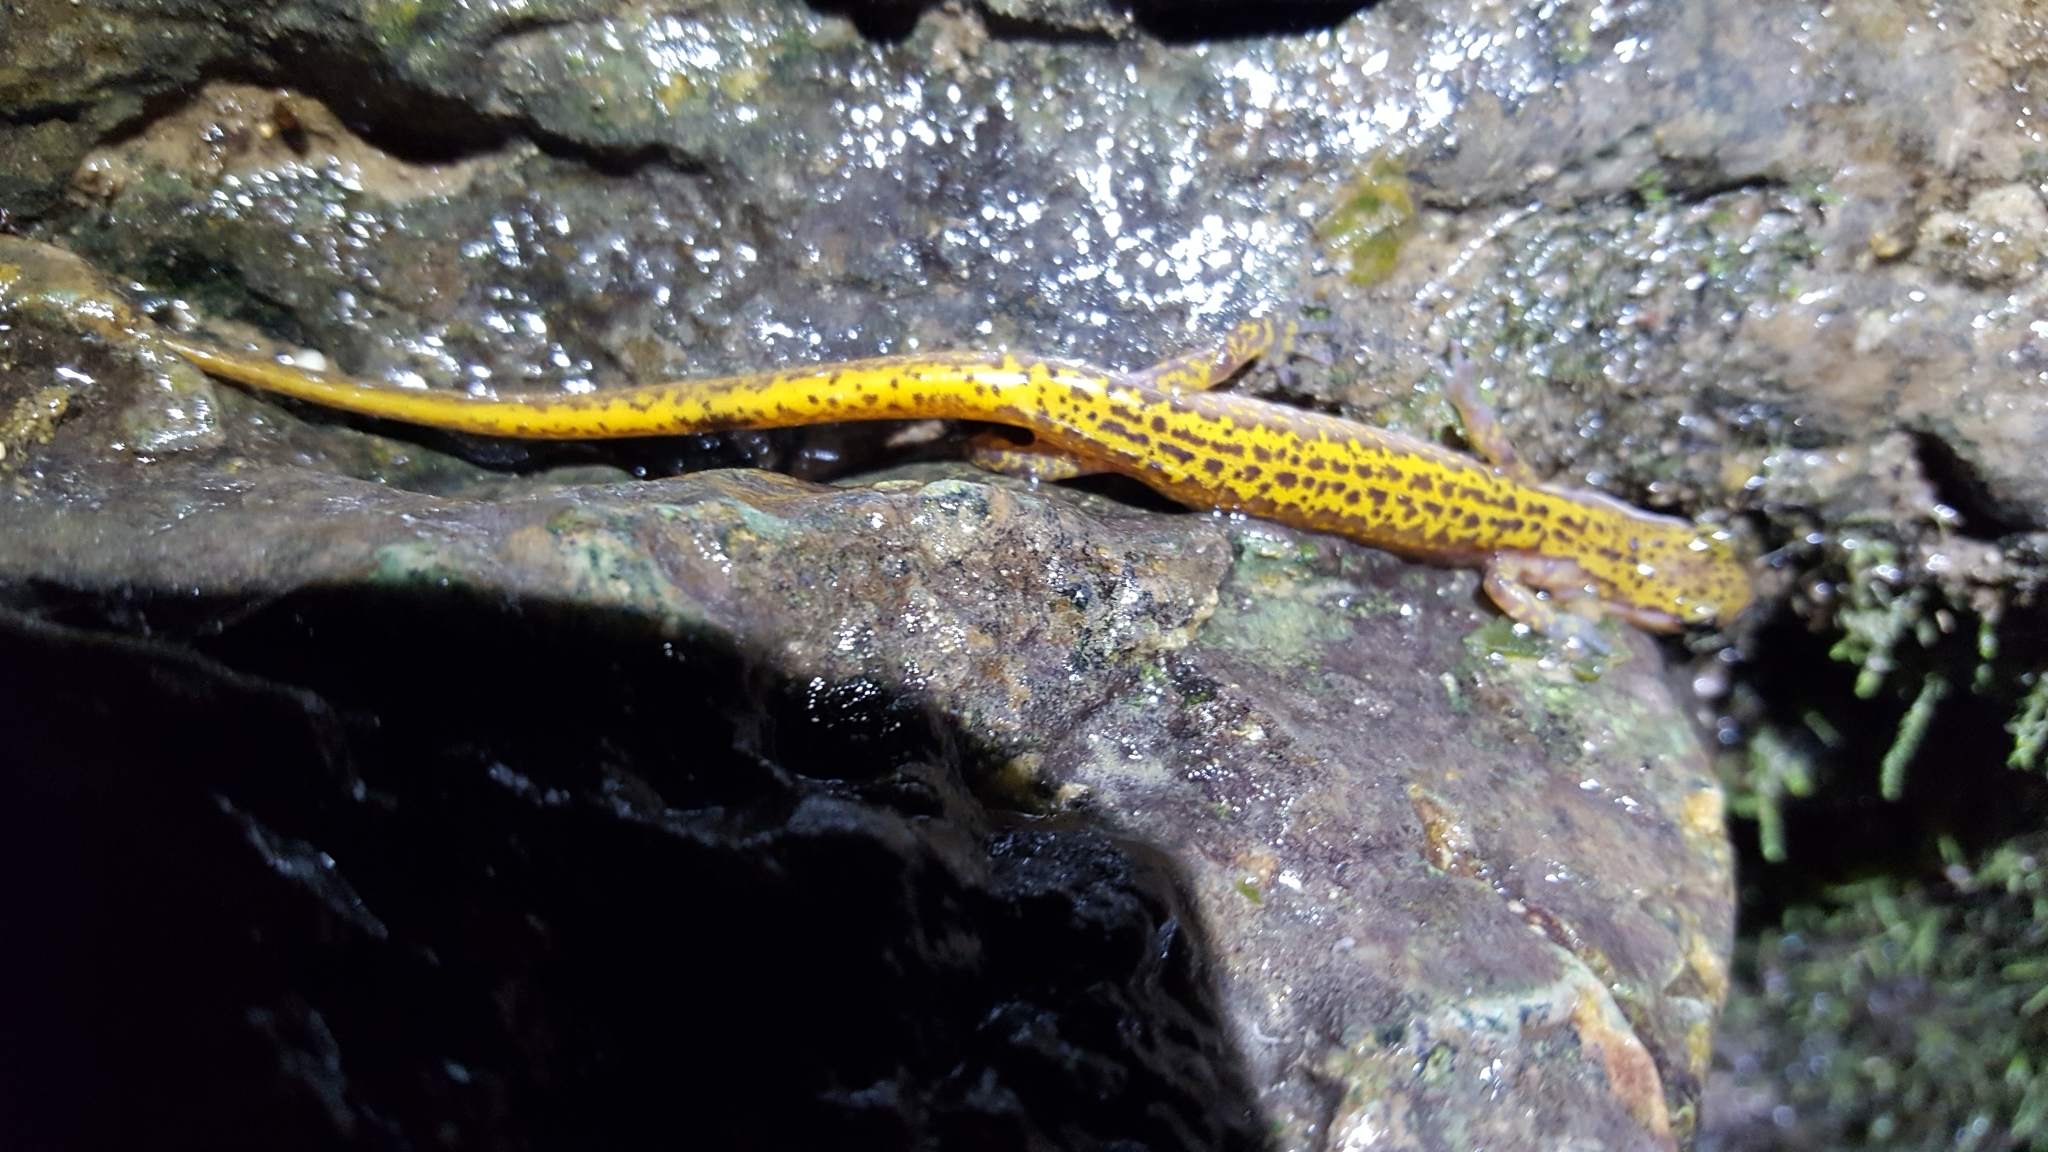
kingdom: Animalia
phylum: Chordata
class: Amphibia
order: Caudata
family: Plethodontidae
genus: Eurycea
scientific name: Eurycea longicauda
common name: Long-tailed salamander
